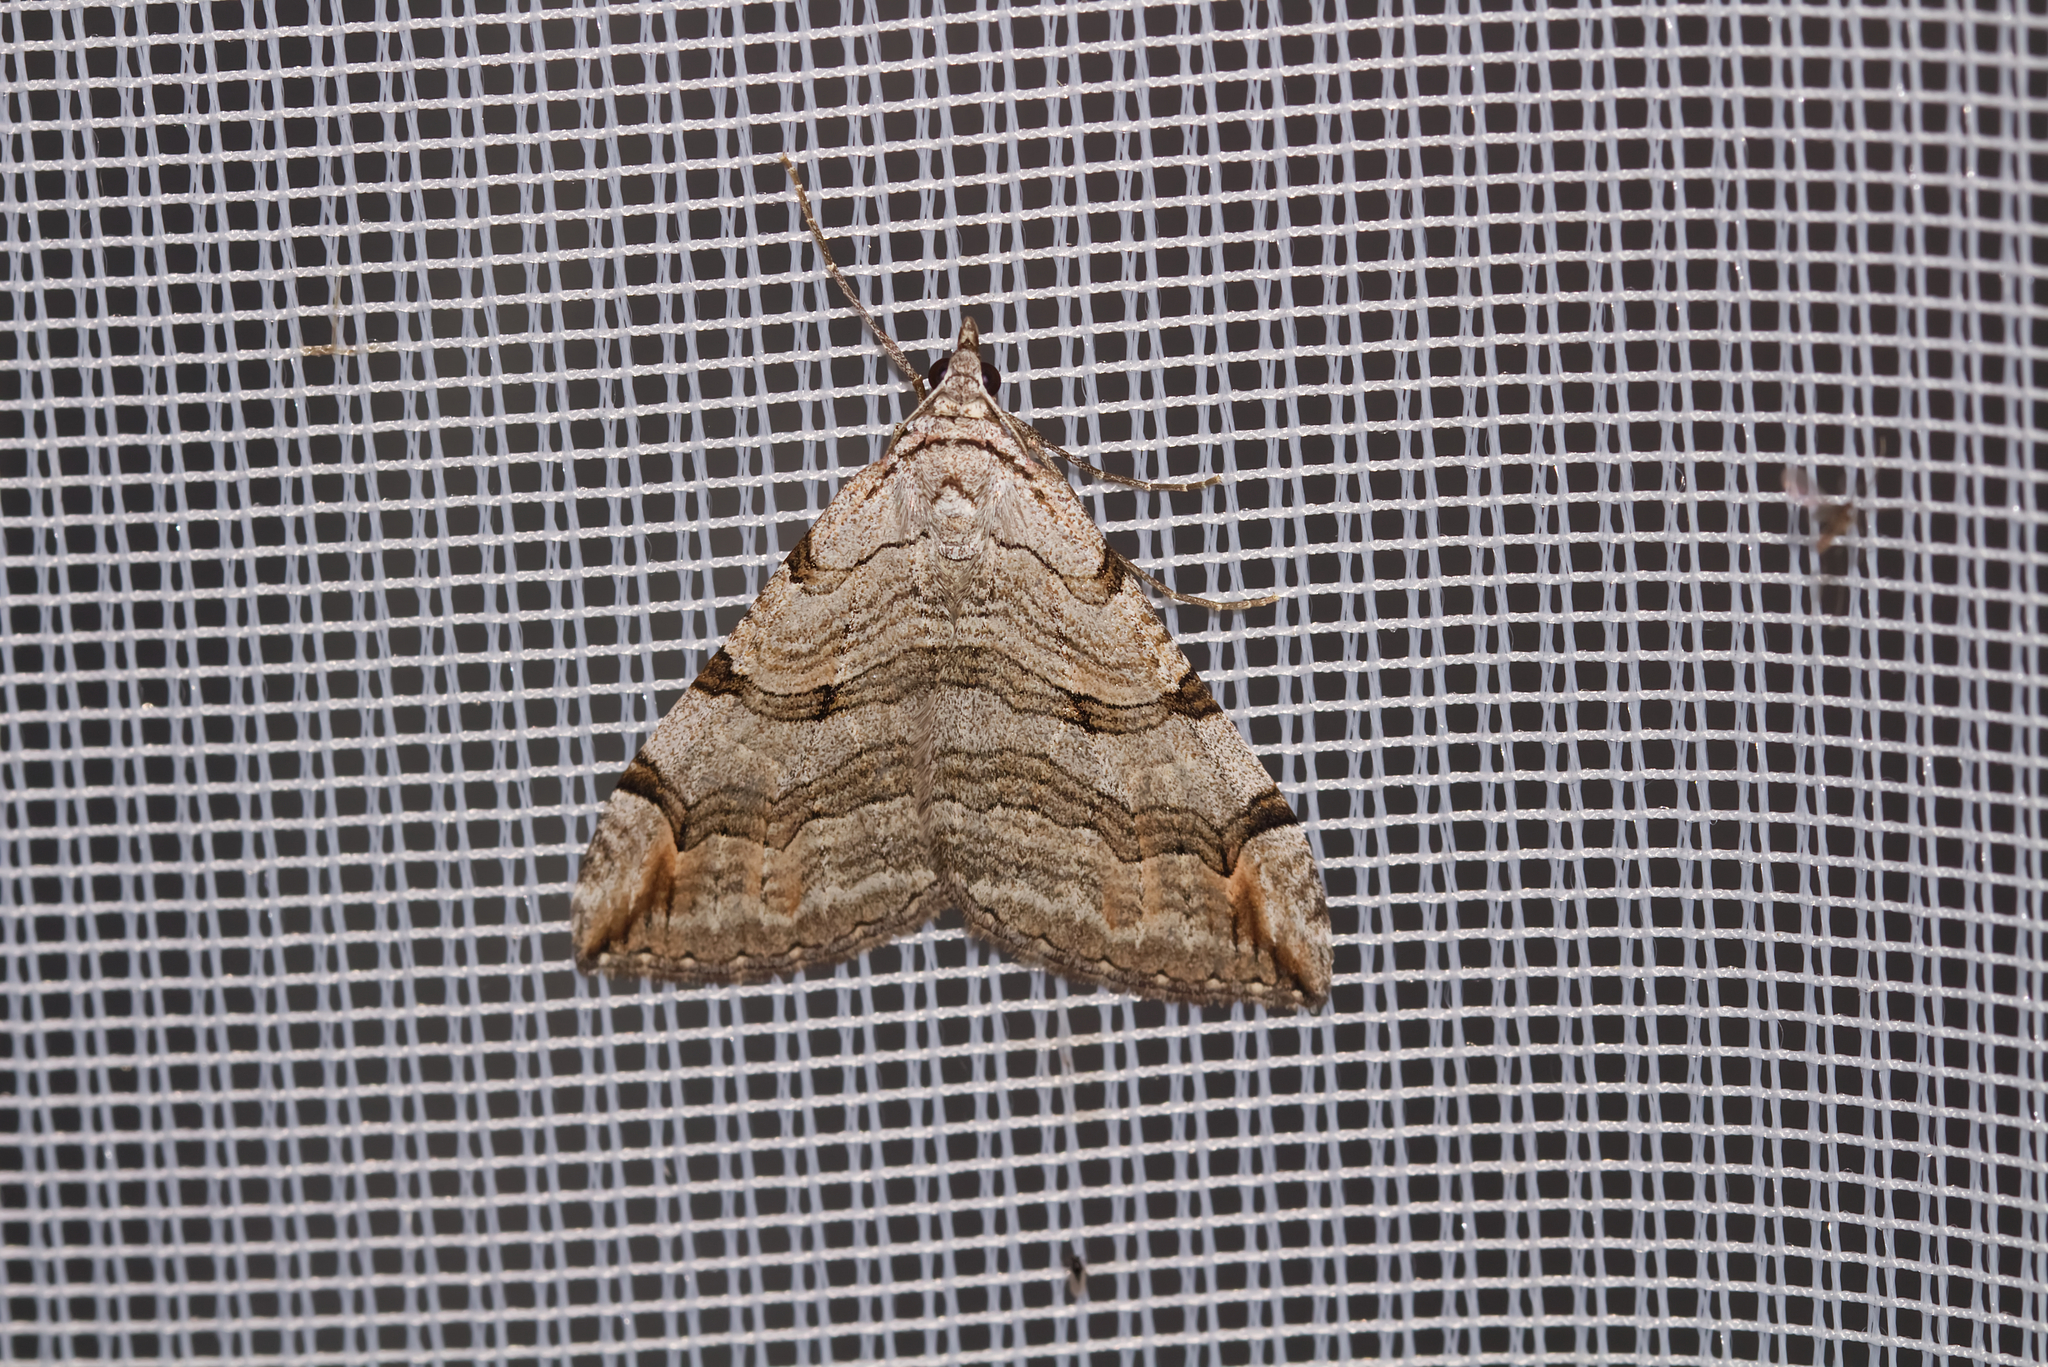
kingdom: Animalia
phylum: Arthropoda
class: Insecta
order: Lepidoptera
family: Geometridae
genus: Aplocera
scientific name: Aplocera plagiata
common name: Treble-bar
